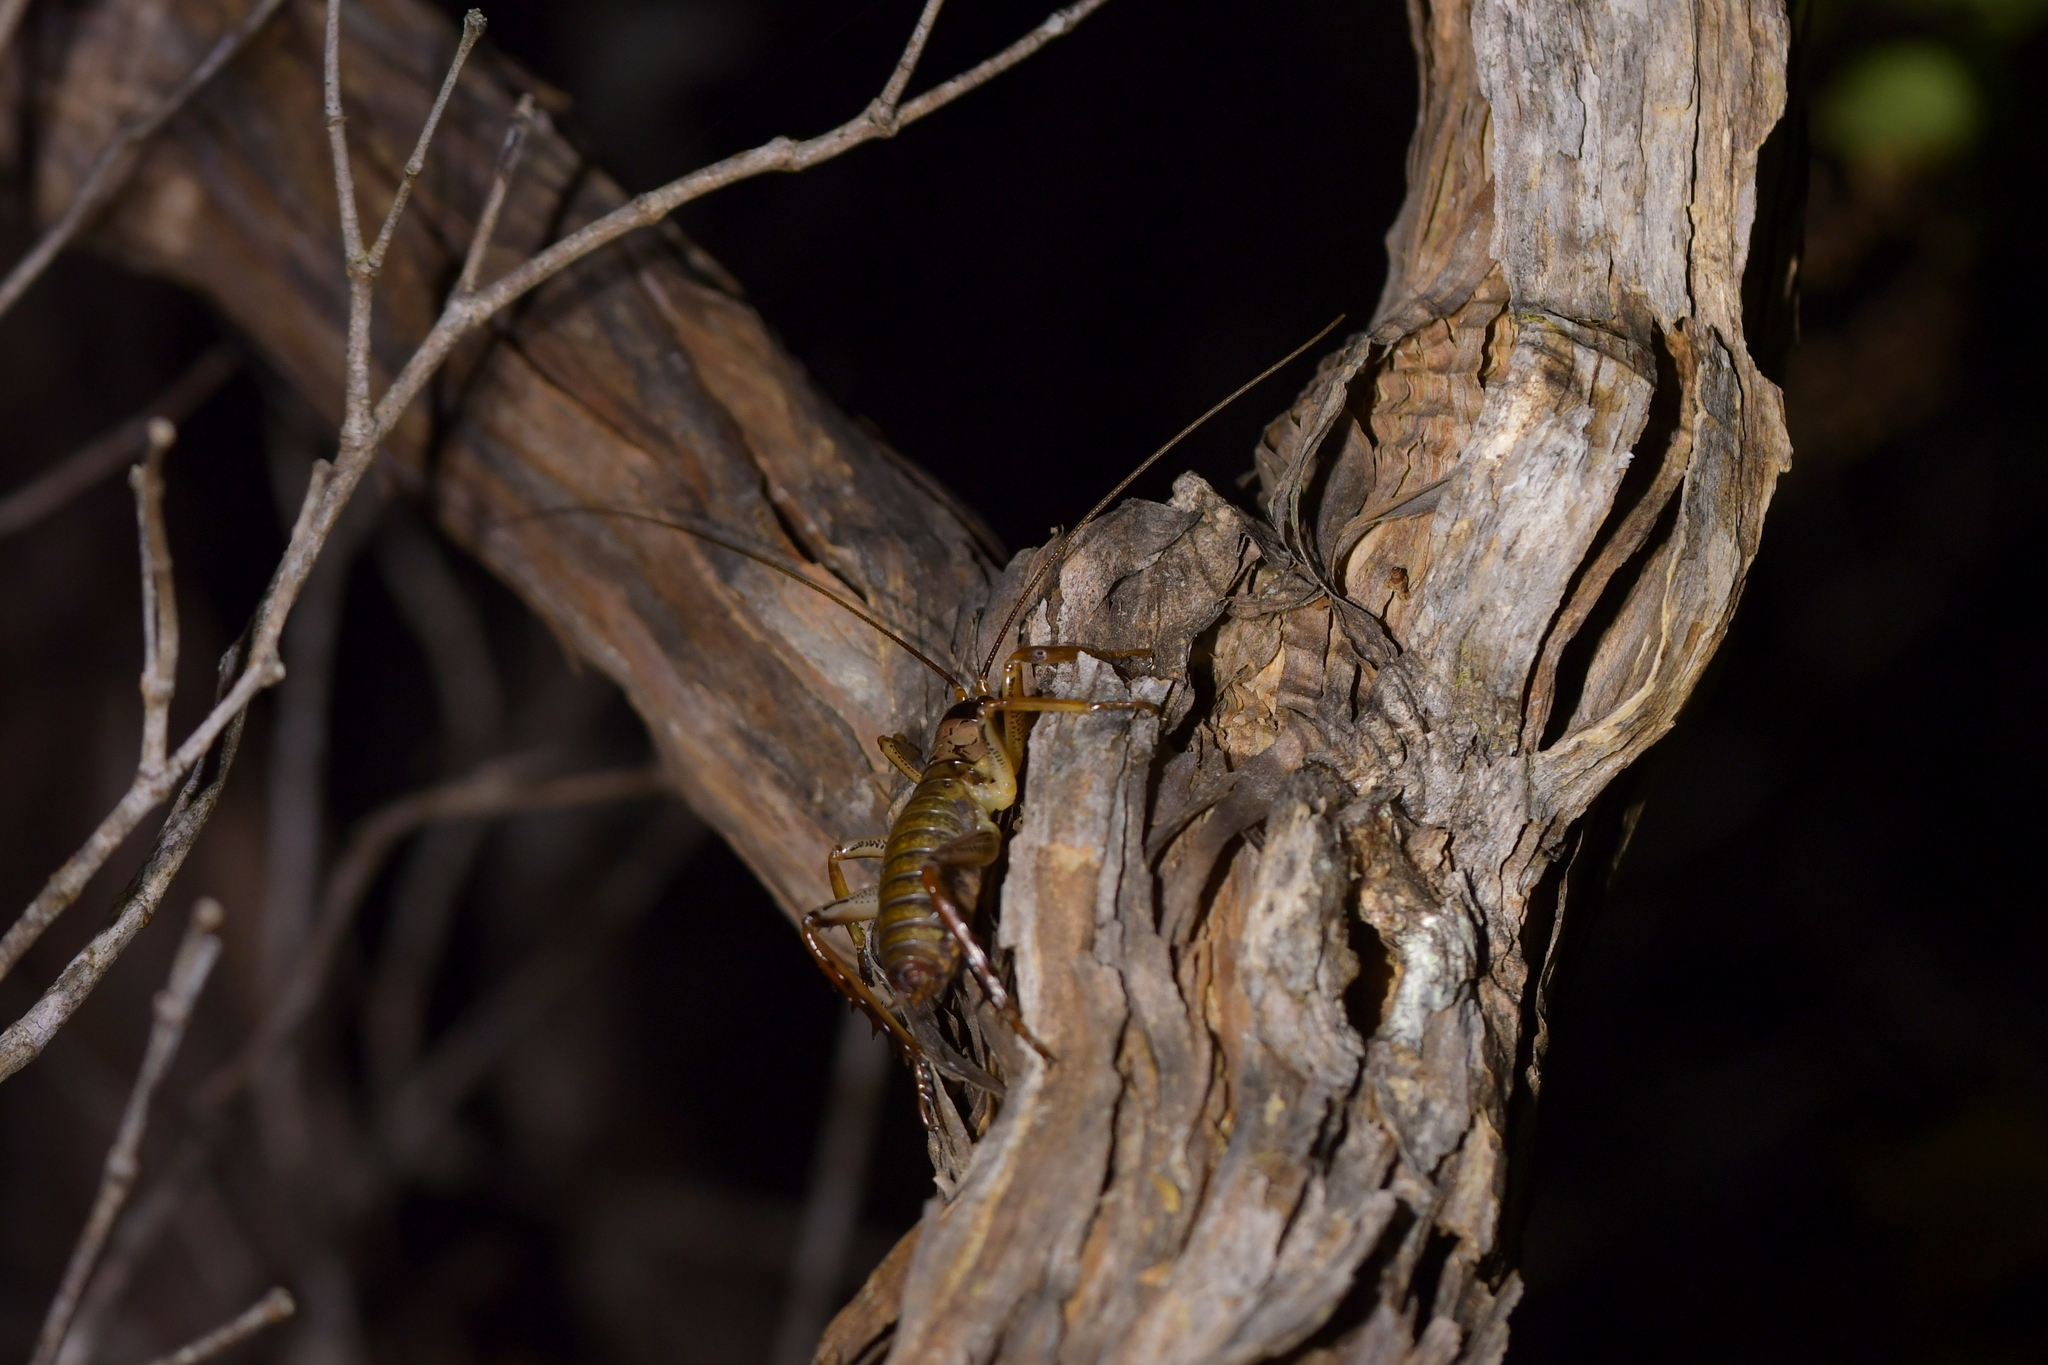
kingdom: Animalia
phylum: Arthropoda
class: Insecta
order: Orthoptera
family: Anostostomatidae
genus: Hemideina
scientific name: Hemideina thoracica
